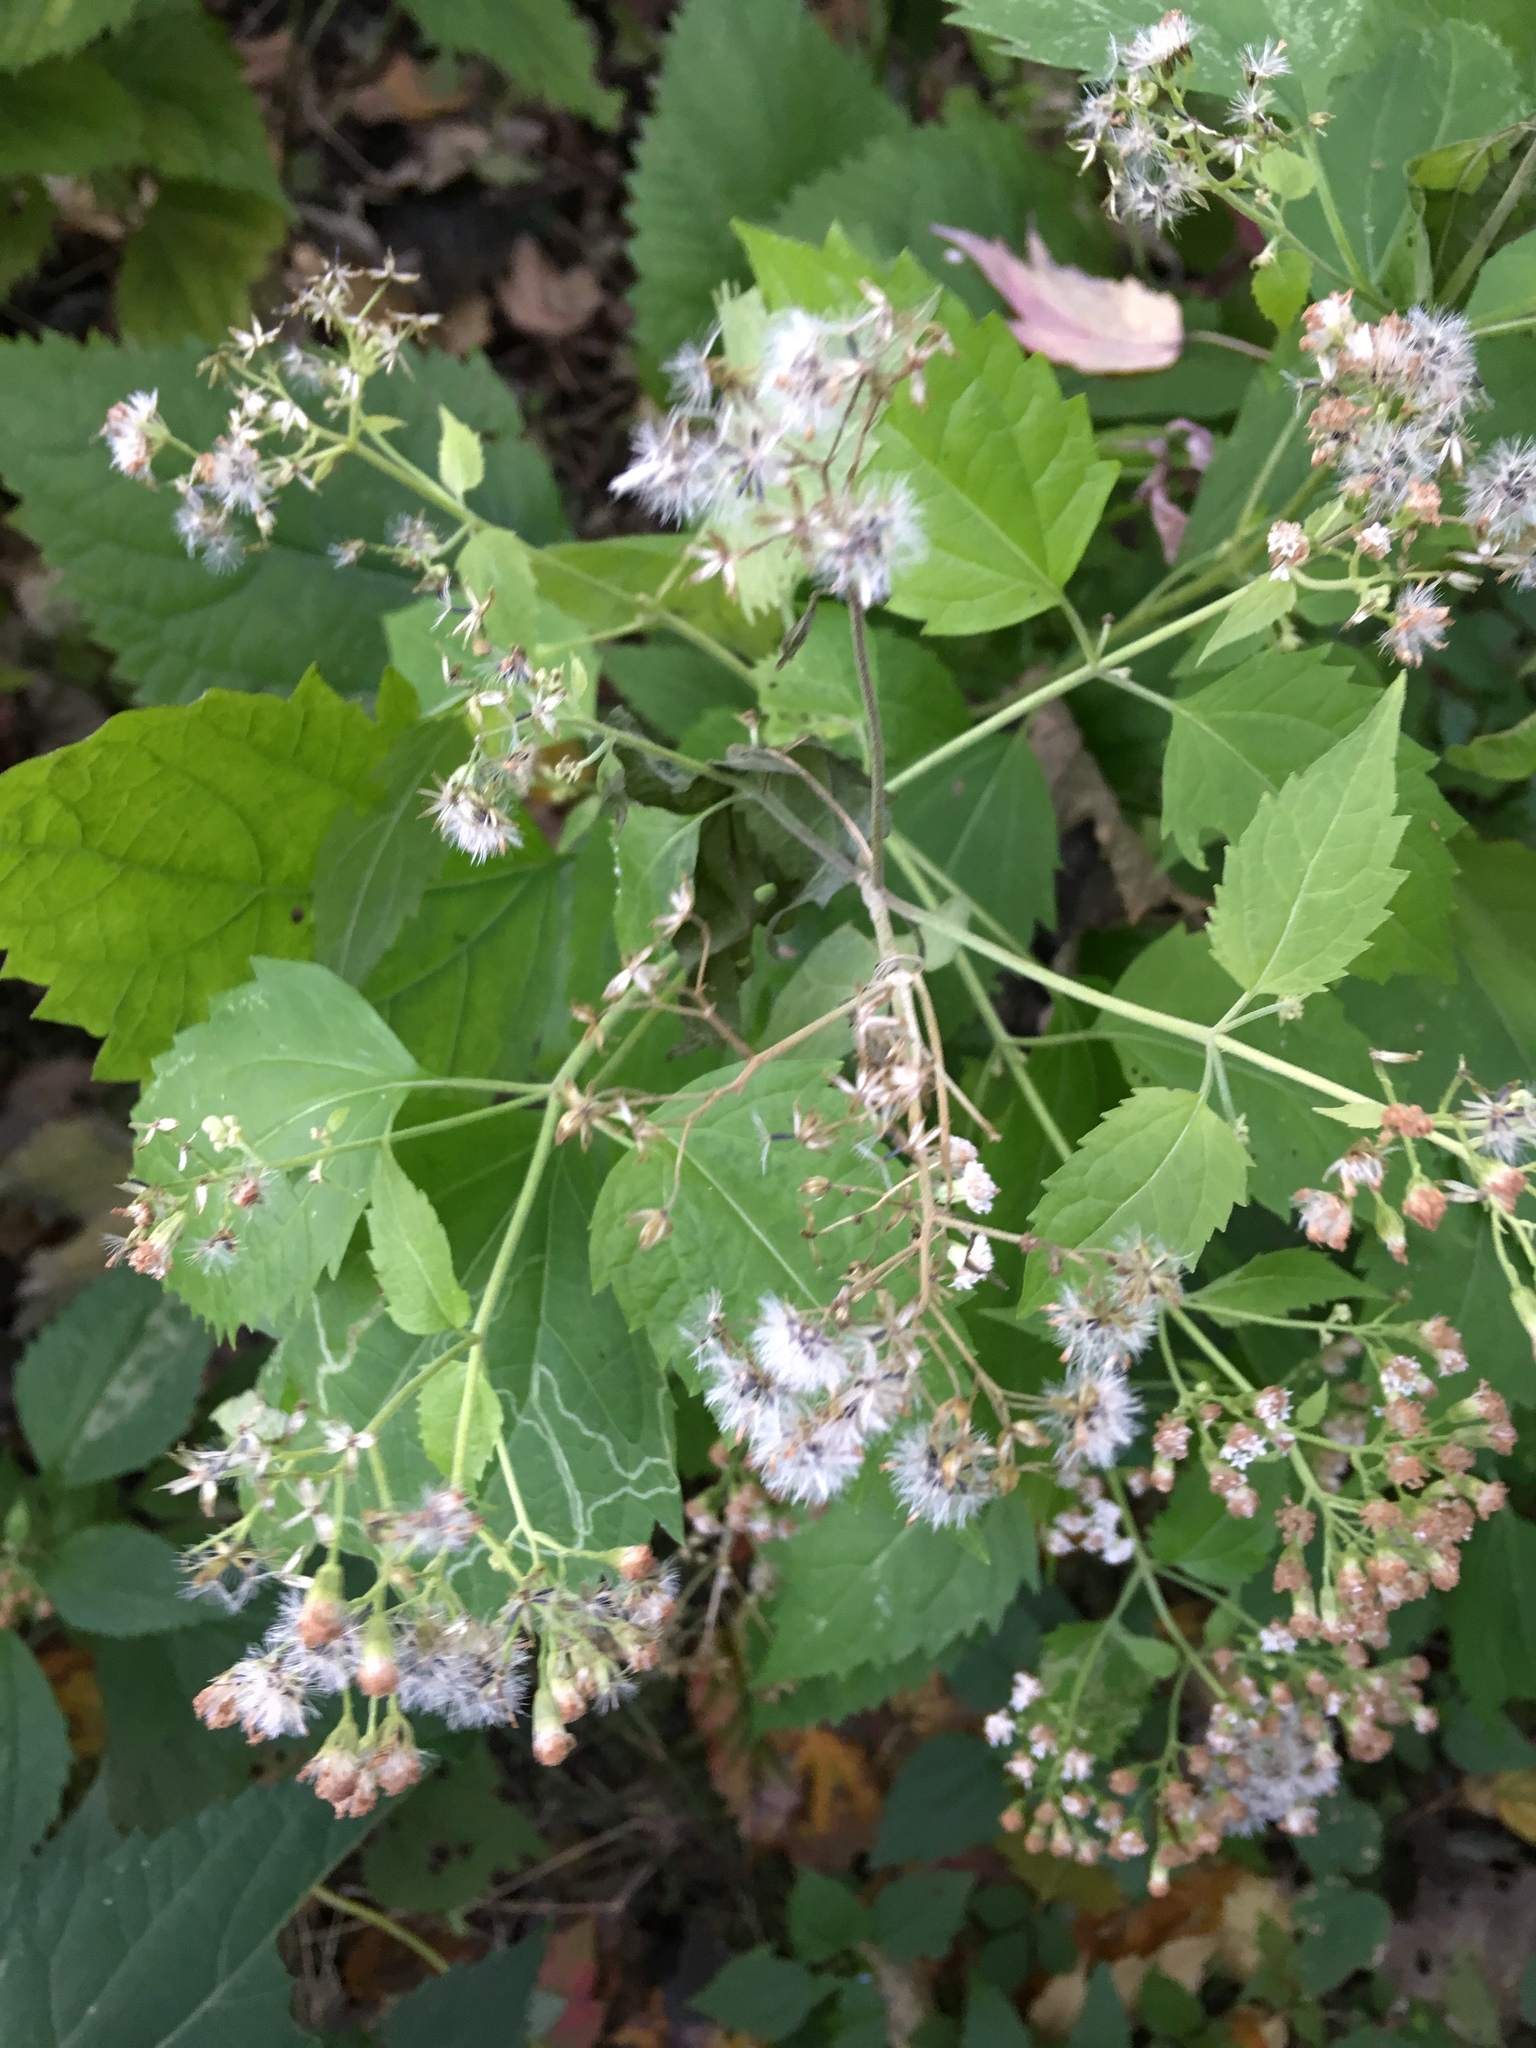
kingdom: Plantae
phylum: Tracheophyta
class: Magnoliopsida
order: Asterales
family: Asteraceae
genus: Ageratina
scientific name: Ageratina altissima
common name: White snakeroot
